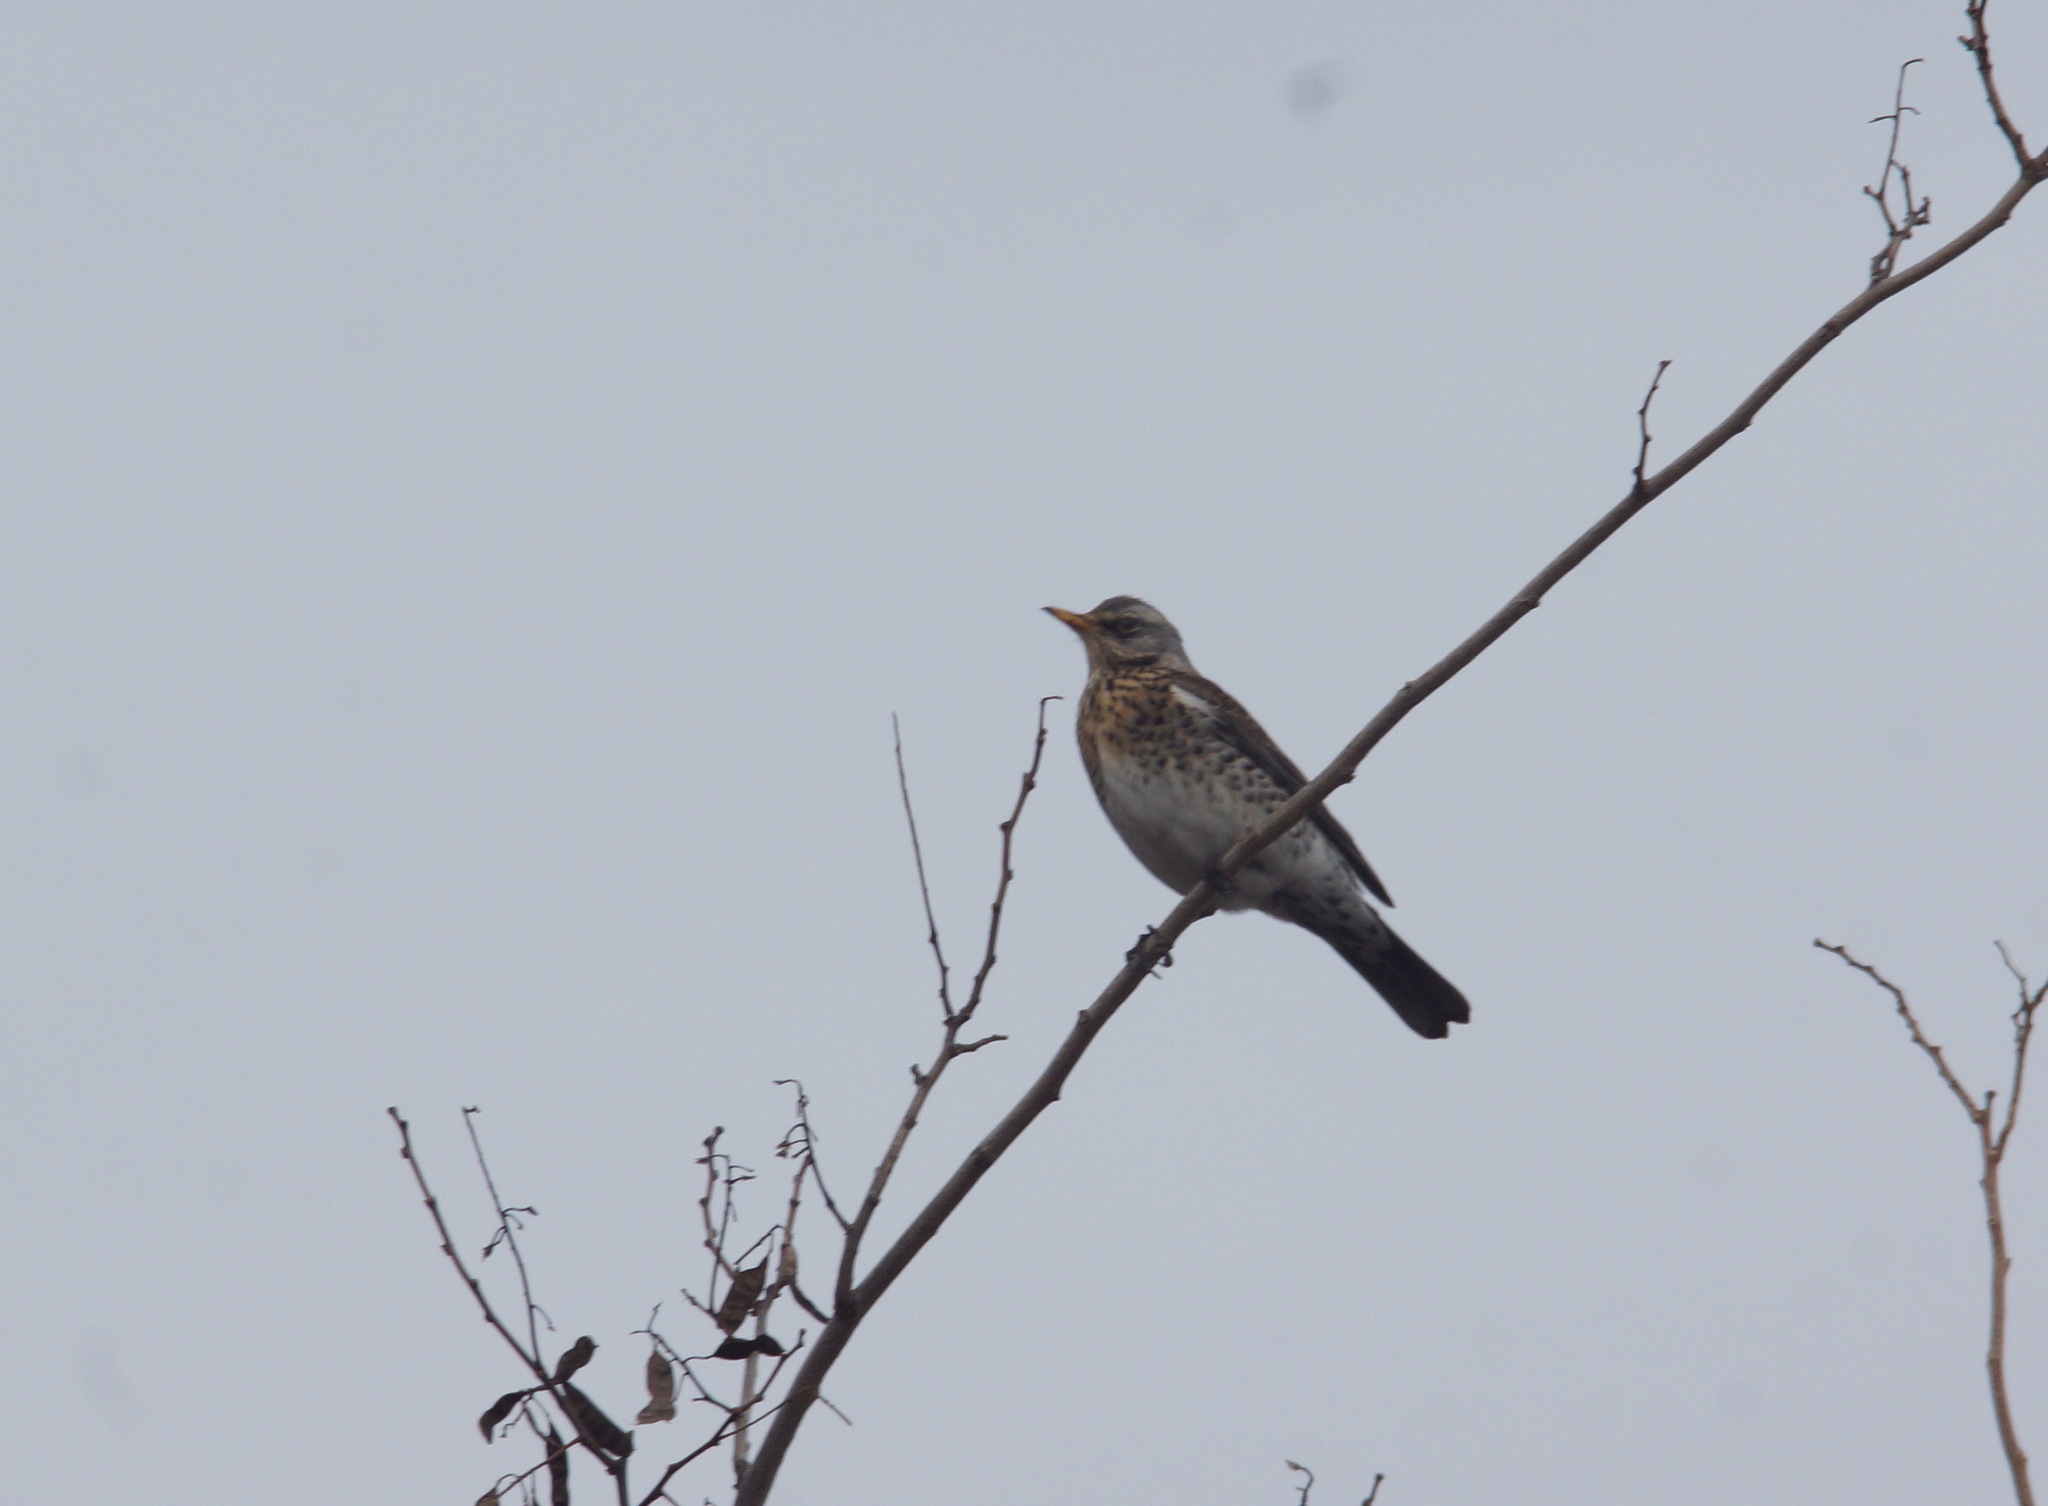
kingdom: Animalia
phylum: Chordata
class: Aves
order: Passeriformes
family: Turdidae
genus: Turdus
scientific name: Turdus pilaris
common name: Fieldfare
